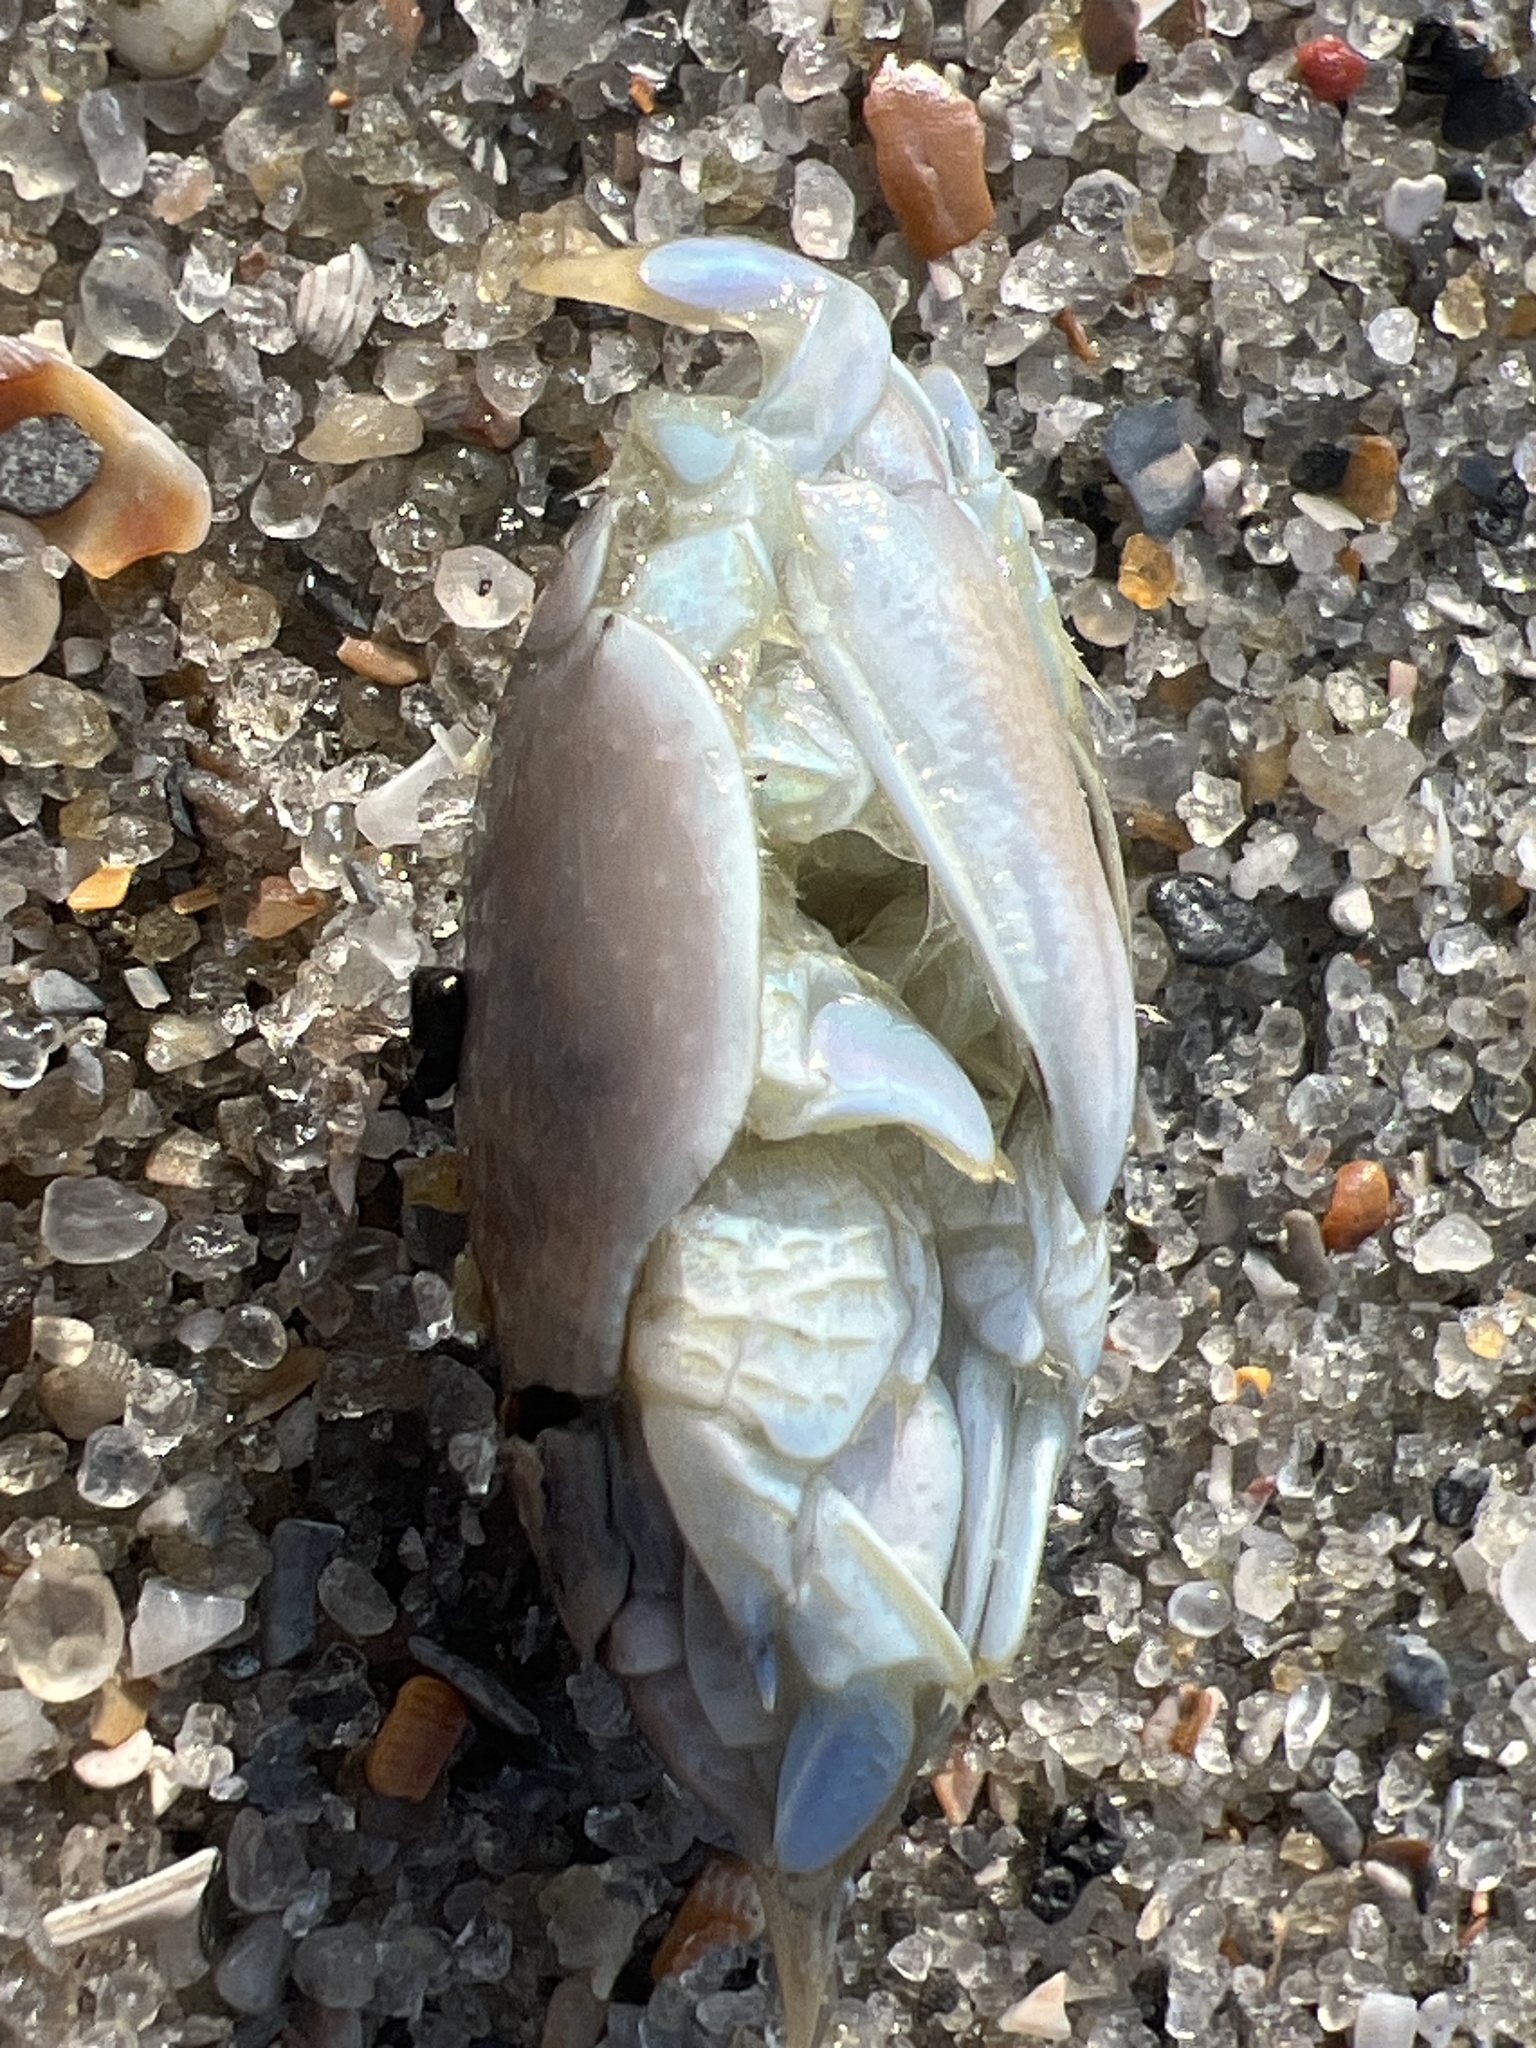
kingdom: Animalia
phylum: Arthropoda
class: Malacostraca
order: Decapoda
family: Hippidae
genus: Emerita
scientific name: Emerita talpoida
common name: Atlantic sand crab
